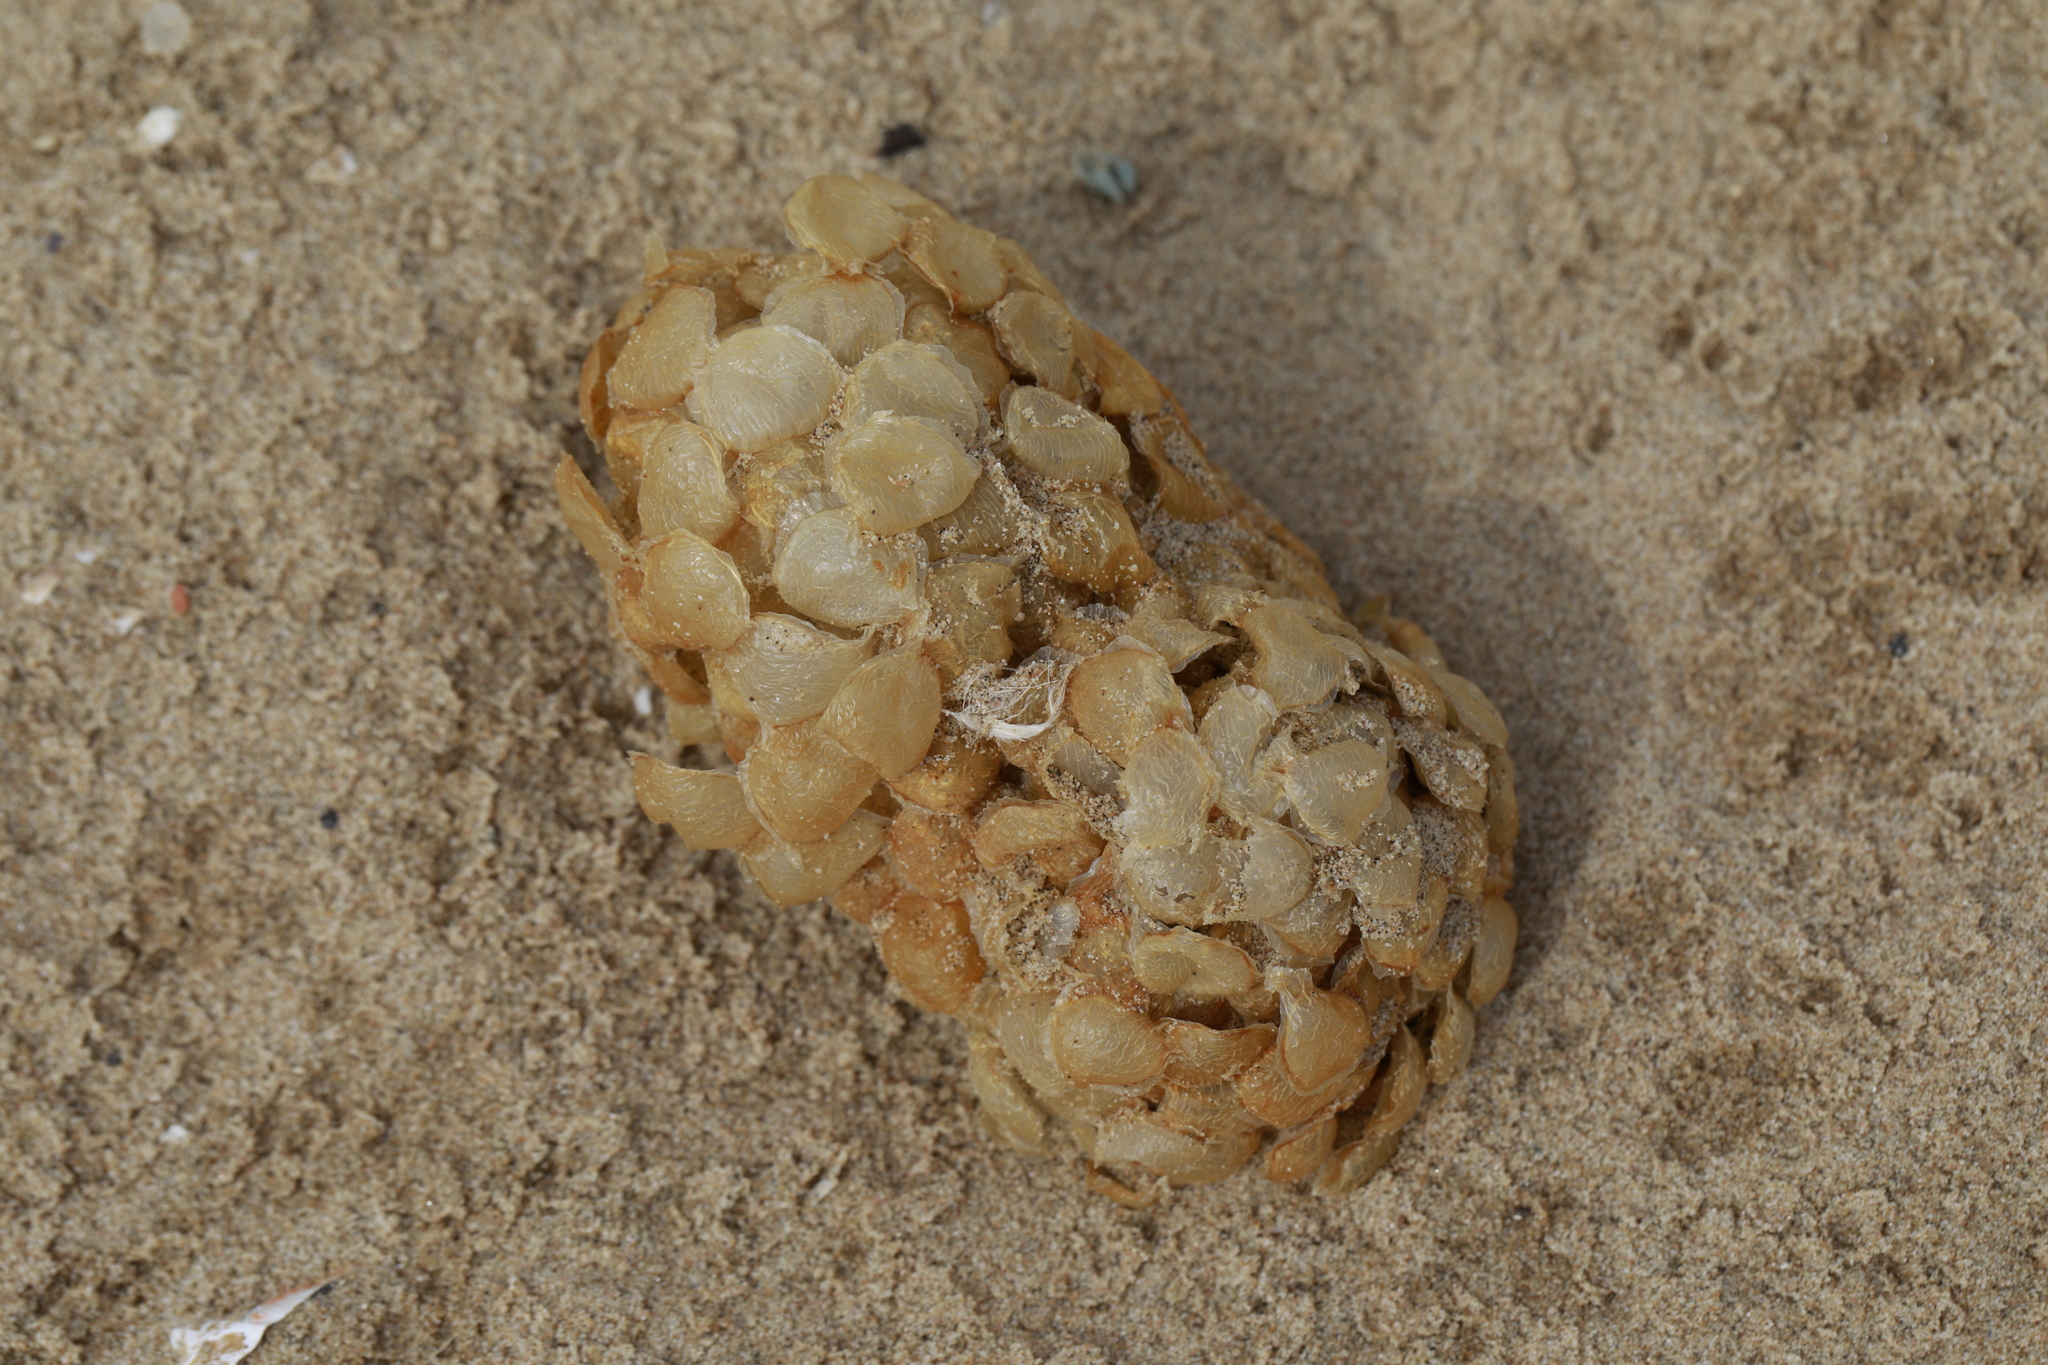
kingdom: Animalia
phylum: Mollusca
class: Gastropoda
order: Neogastropoda
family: Buccinidae
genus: Buccinum
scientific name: Buccinum undatum
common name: Common whelk
